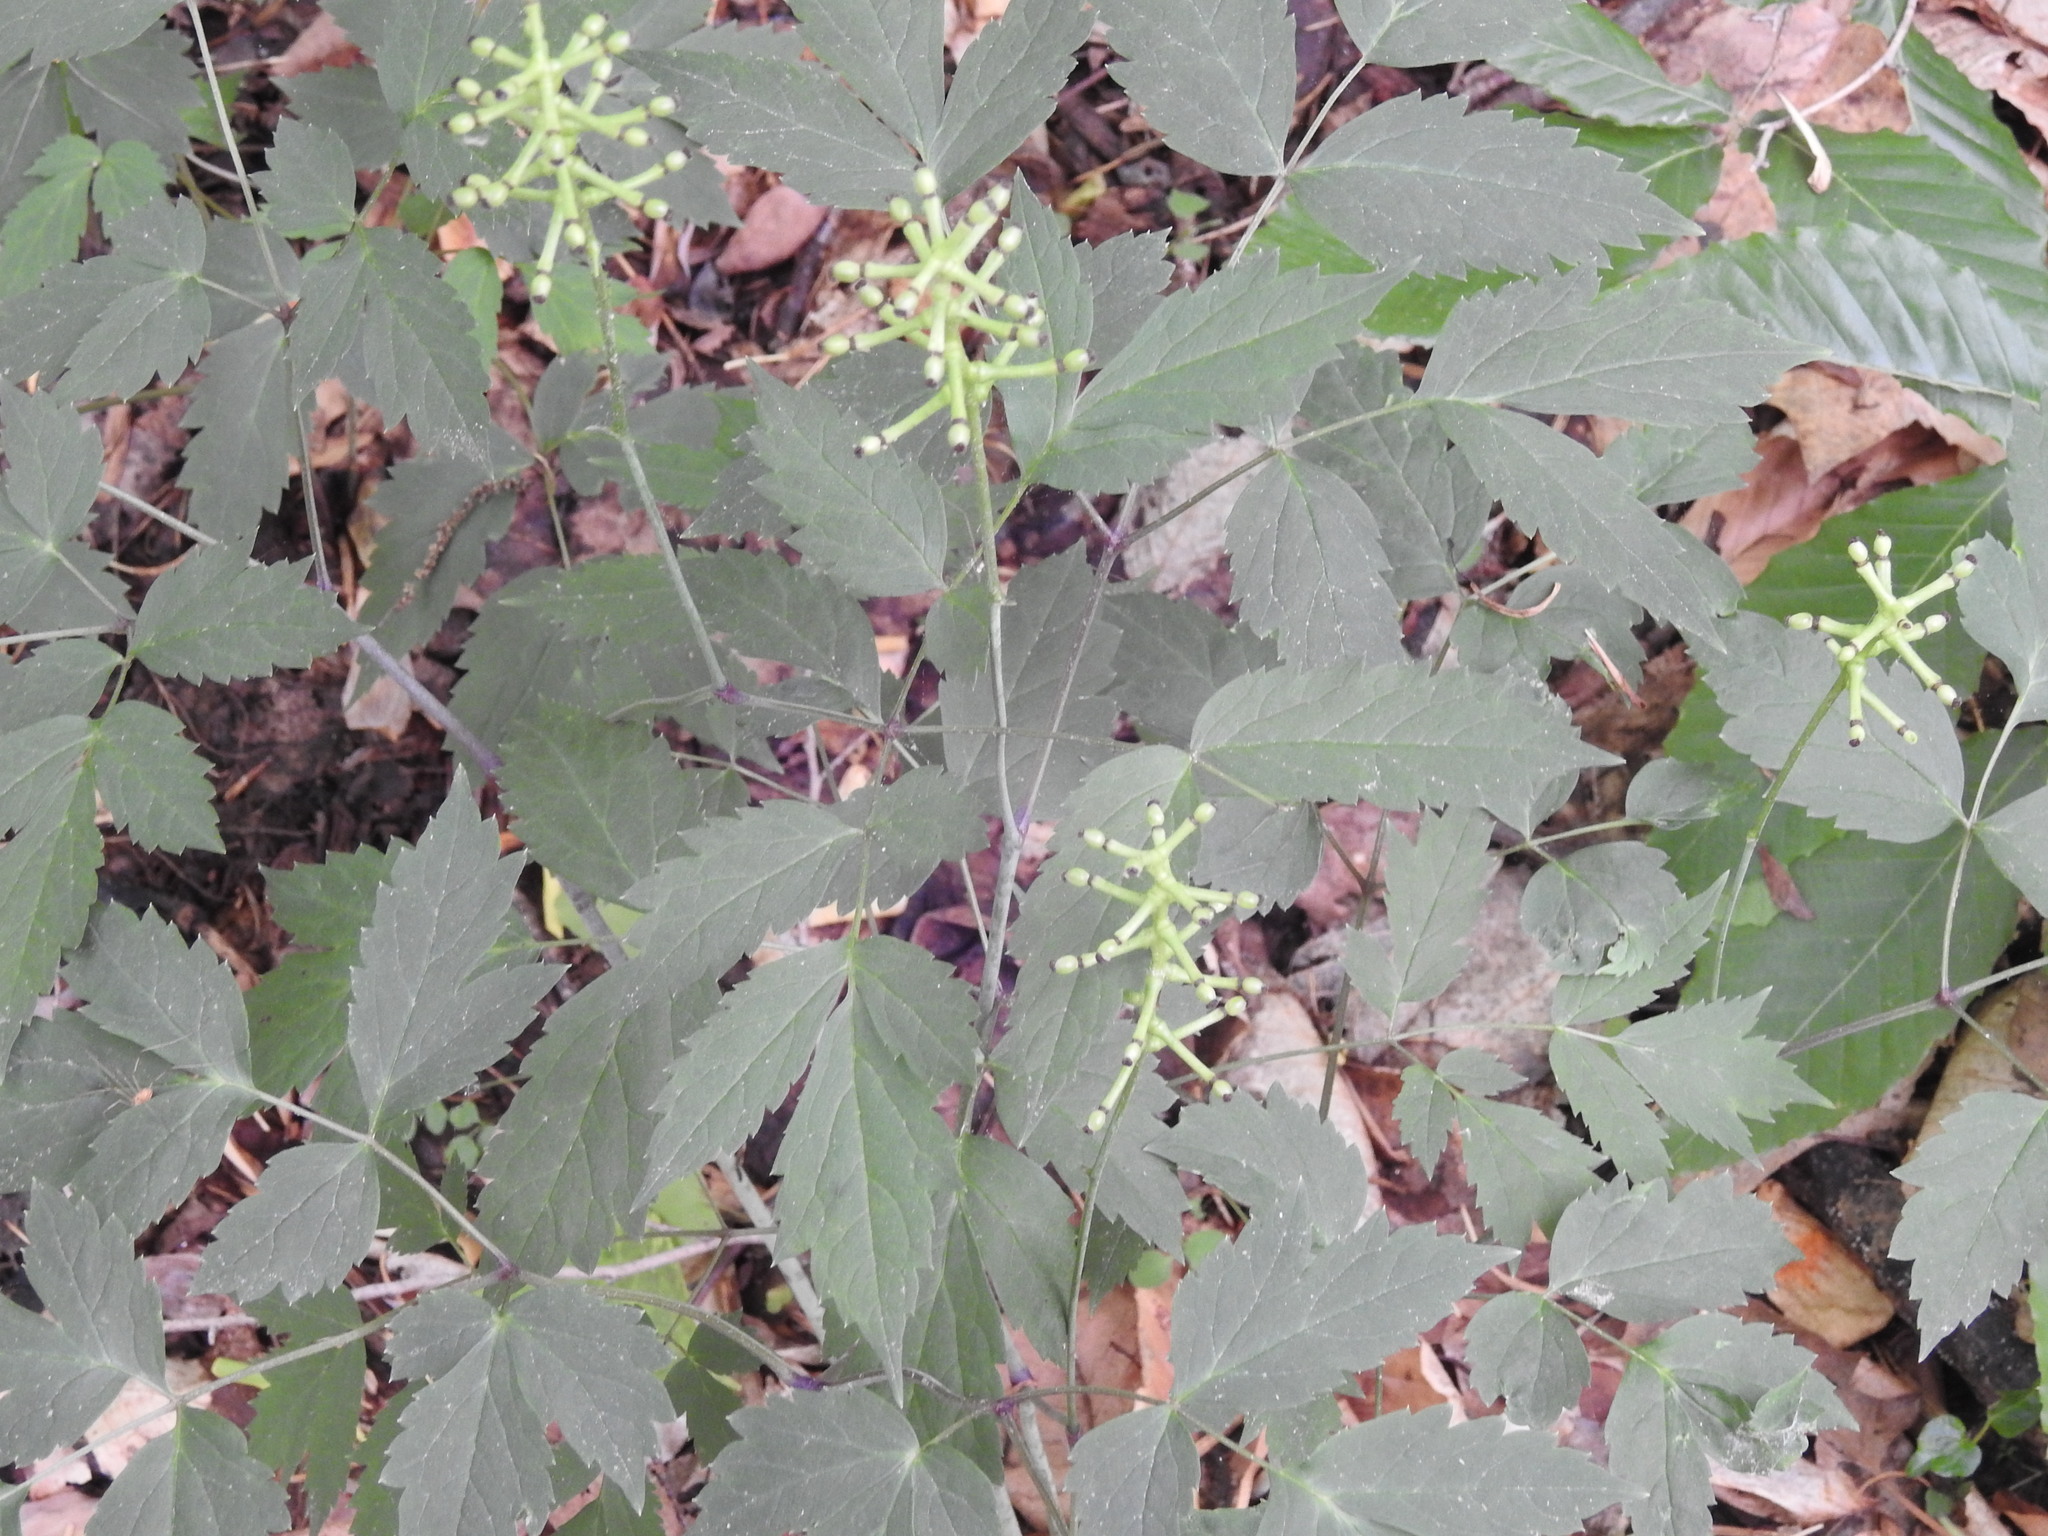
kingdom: Plantae
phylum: Tracheophyta
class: Magnoliopsida
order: Ranunculales
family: Ranunculaceae
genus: Actaea
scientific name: Actaea pachypoda
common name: Doll's-eyes
